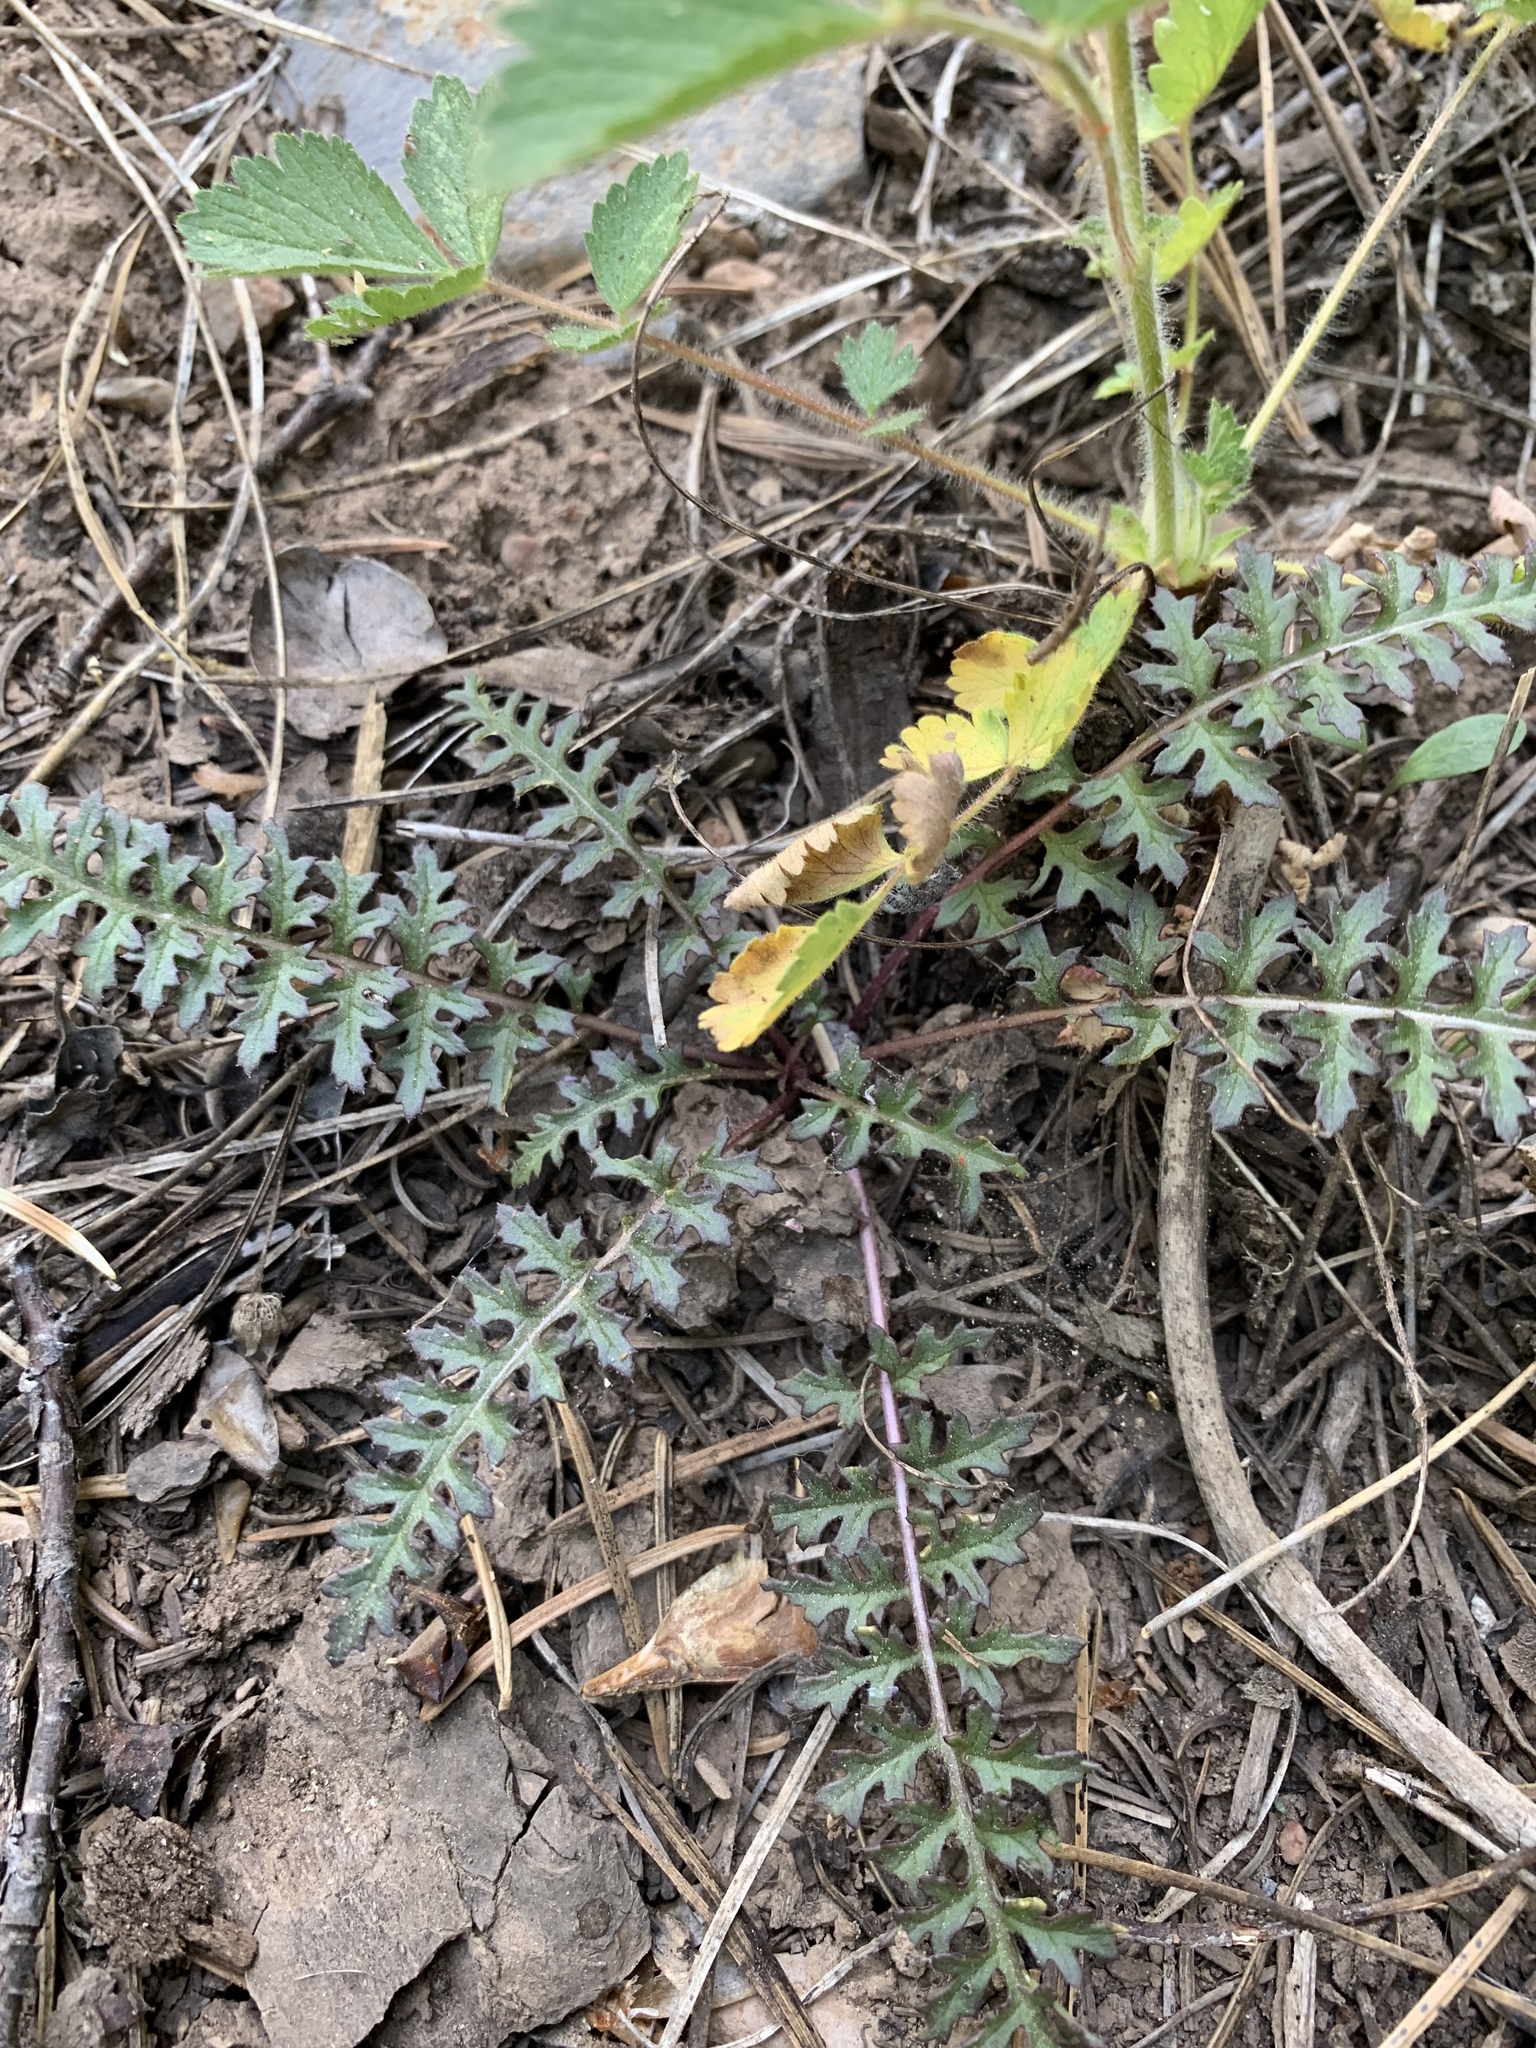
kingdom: Plantae
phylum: Tracheophyta
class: Magnoliopsida
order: Lamiales
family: Orobanchaceae
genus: Pedicularis
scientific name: Pedicularis semibarbata
